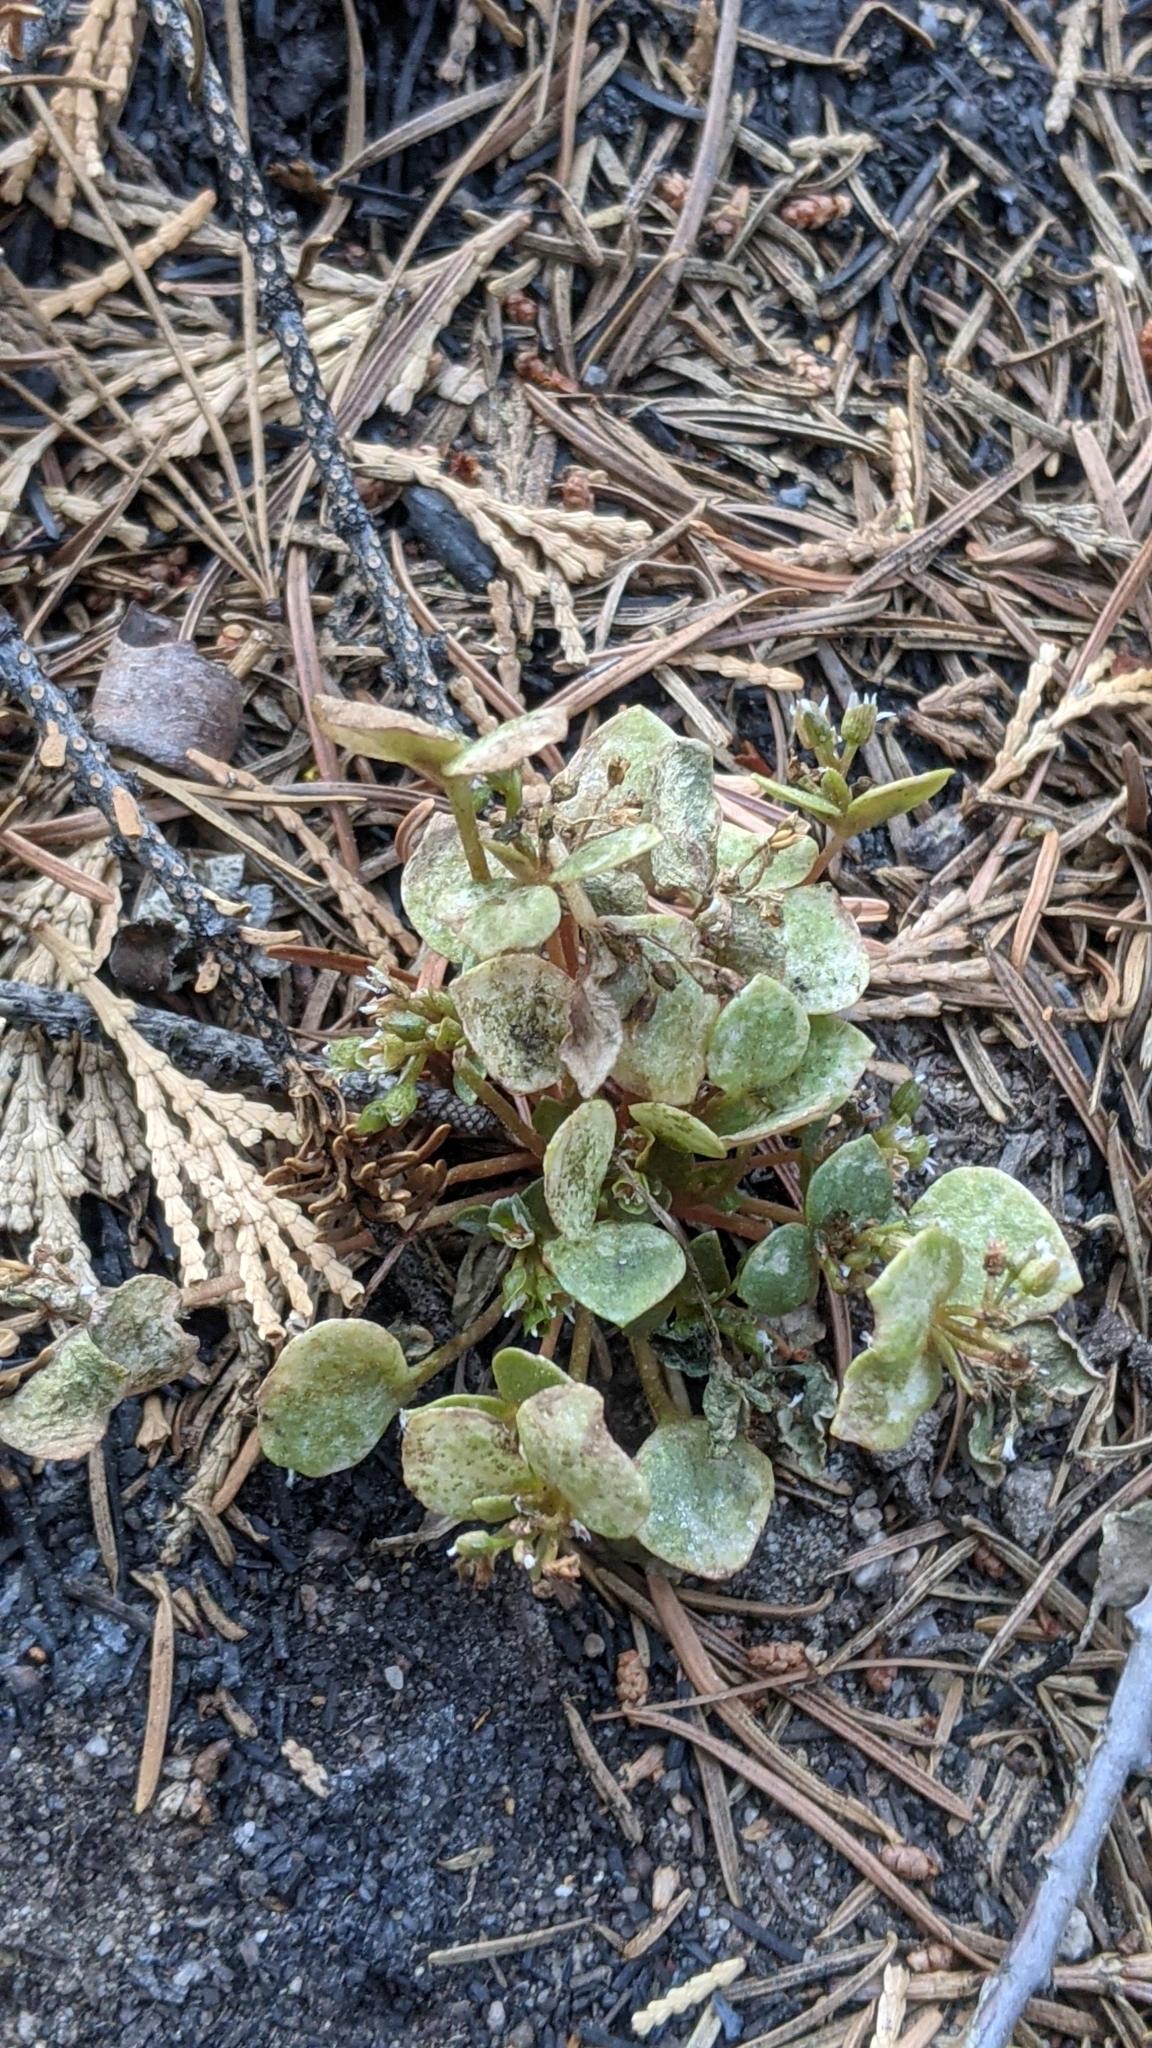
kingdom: Plantae
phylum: Tracheophyta
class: Magnoliopsida
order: Caryophyllales
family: Montiaceae
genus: Claytonia
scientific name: Claytonia rubra
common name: Erubescent miner's-lettuce
